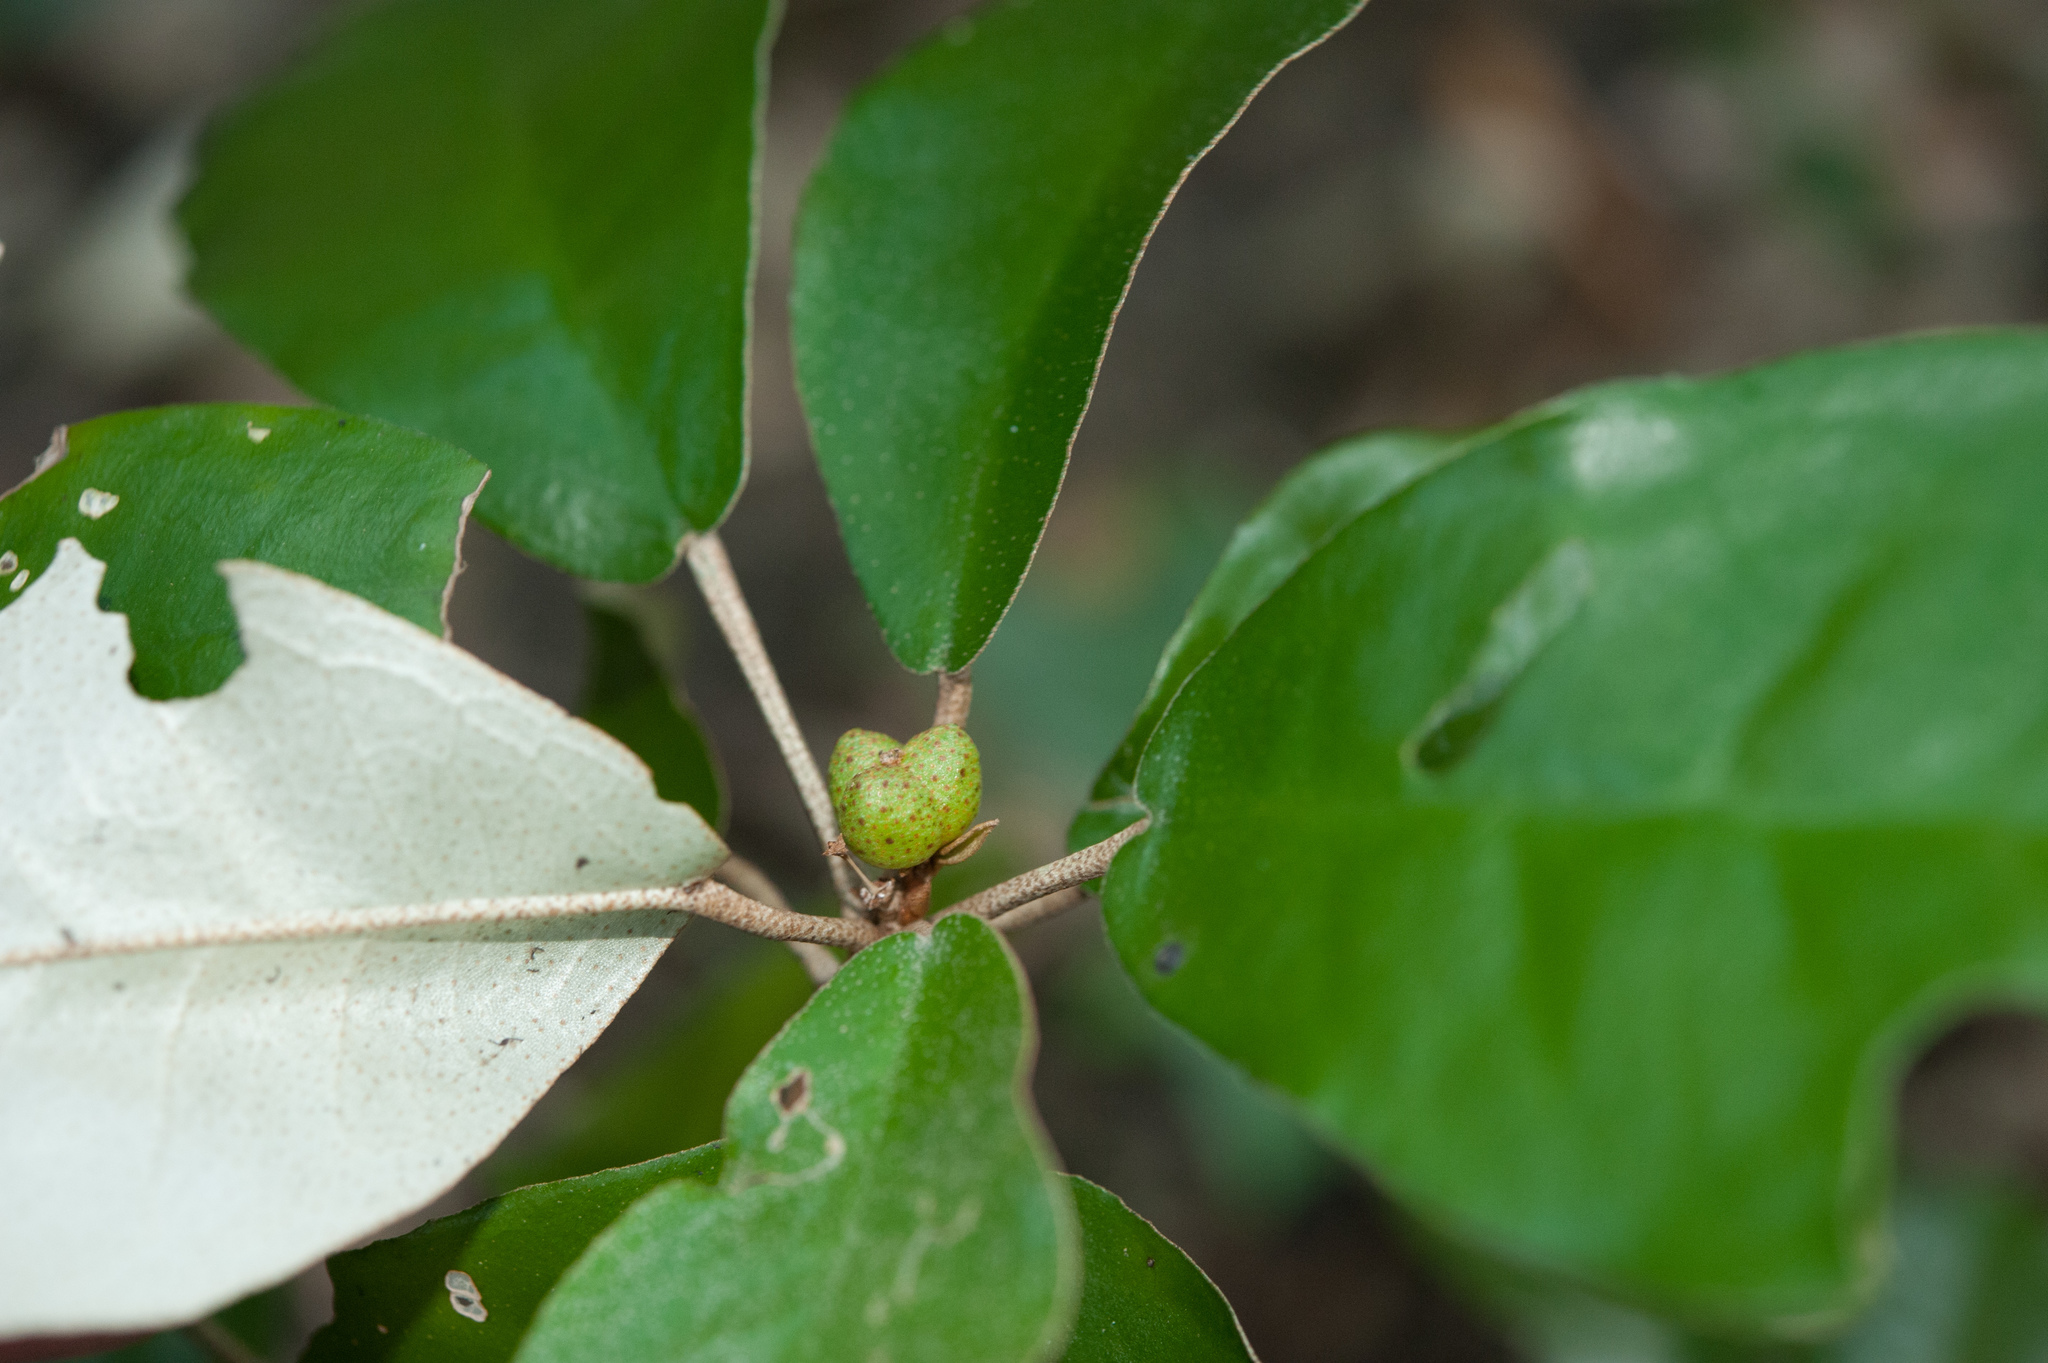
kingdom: Plantae
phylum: Tracheophyta
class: Magnoliopsida
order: Malpighiales
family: Euphorbiaceae
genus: Croton
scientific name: Croton cascarilloides
